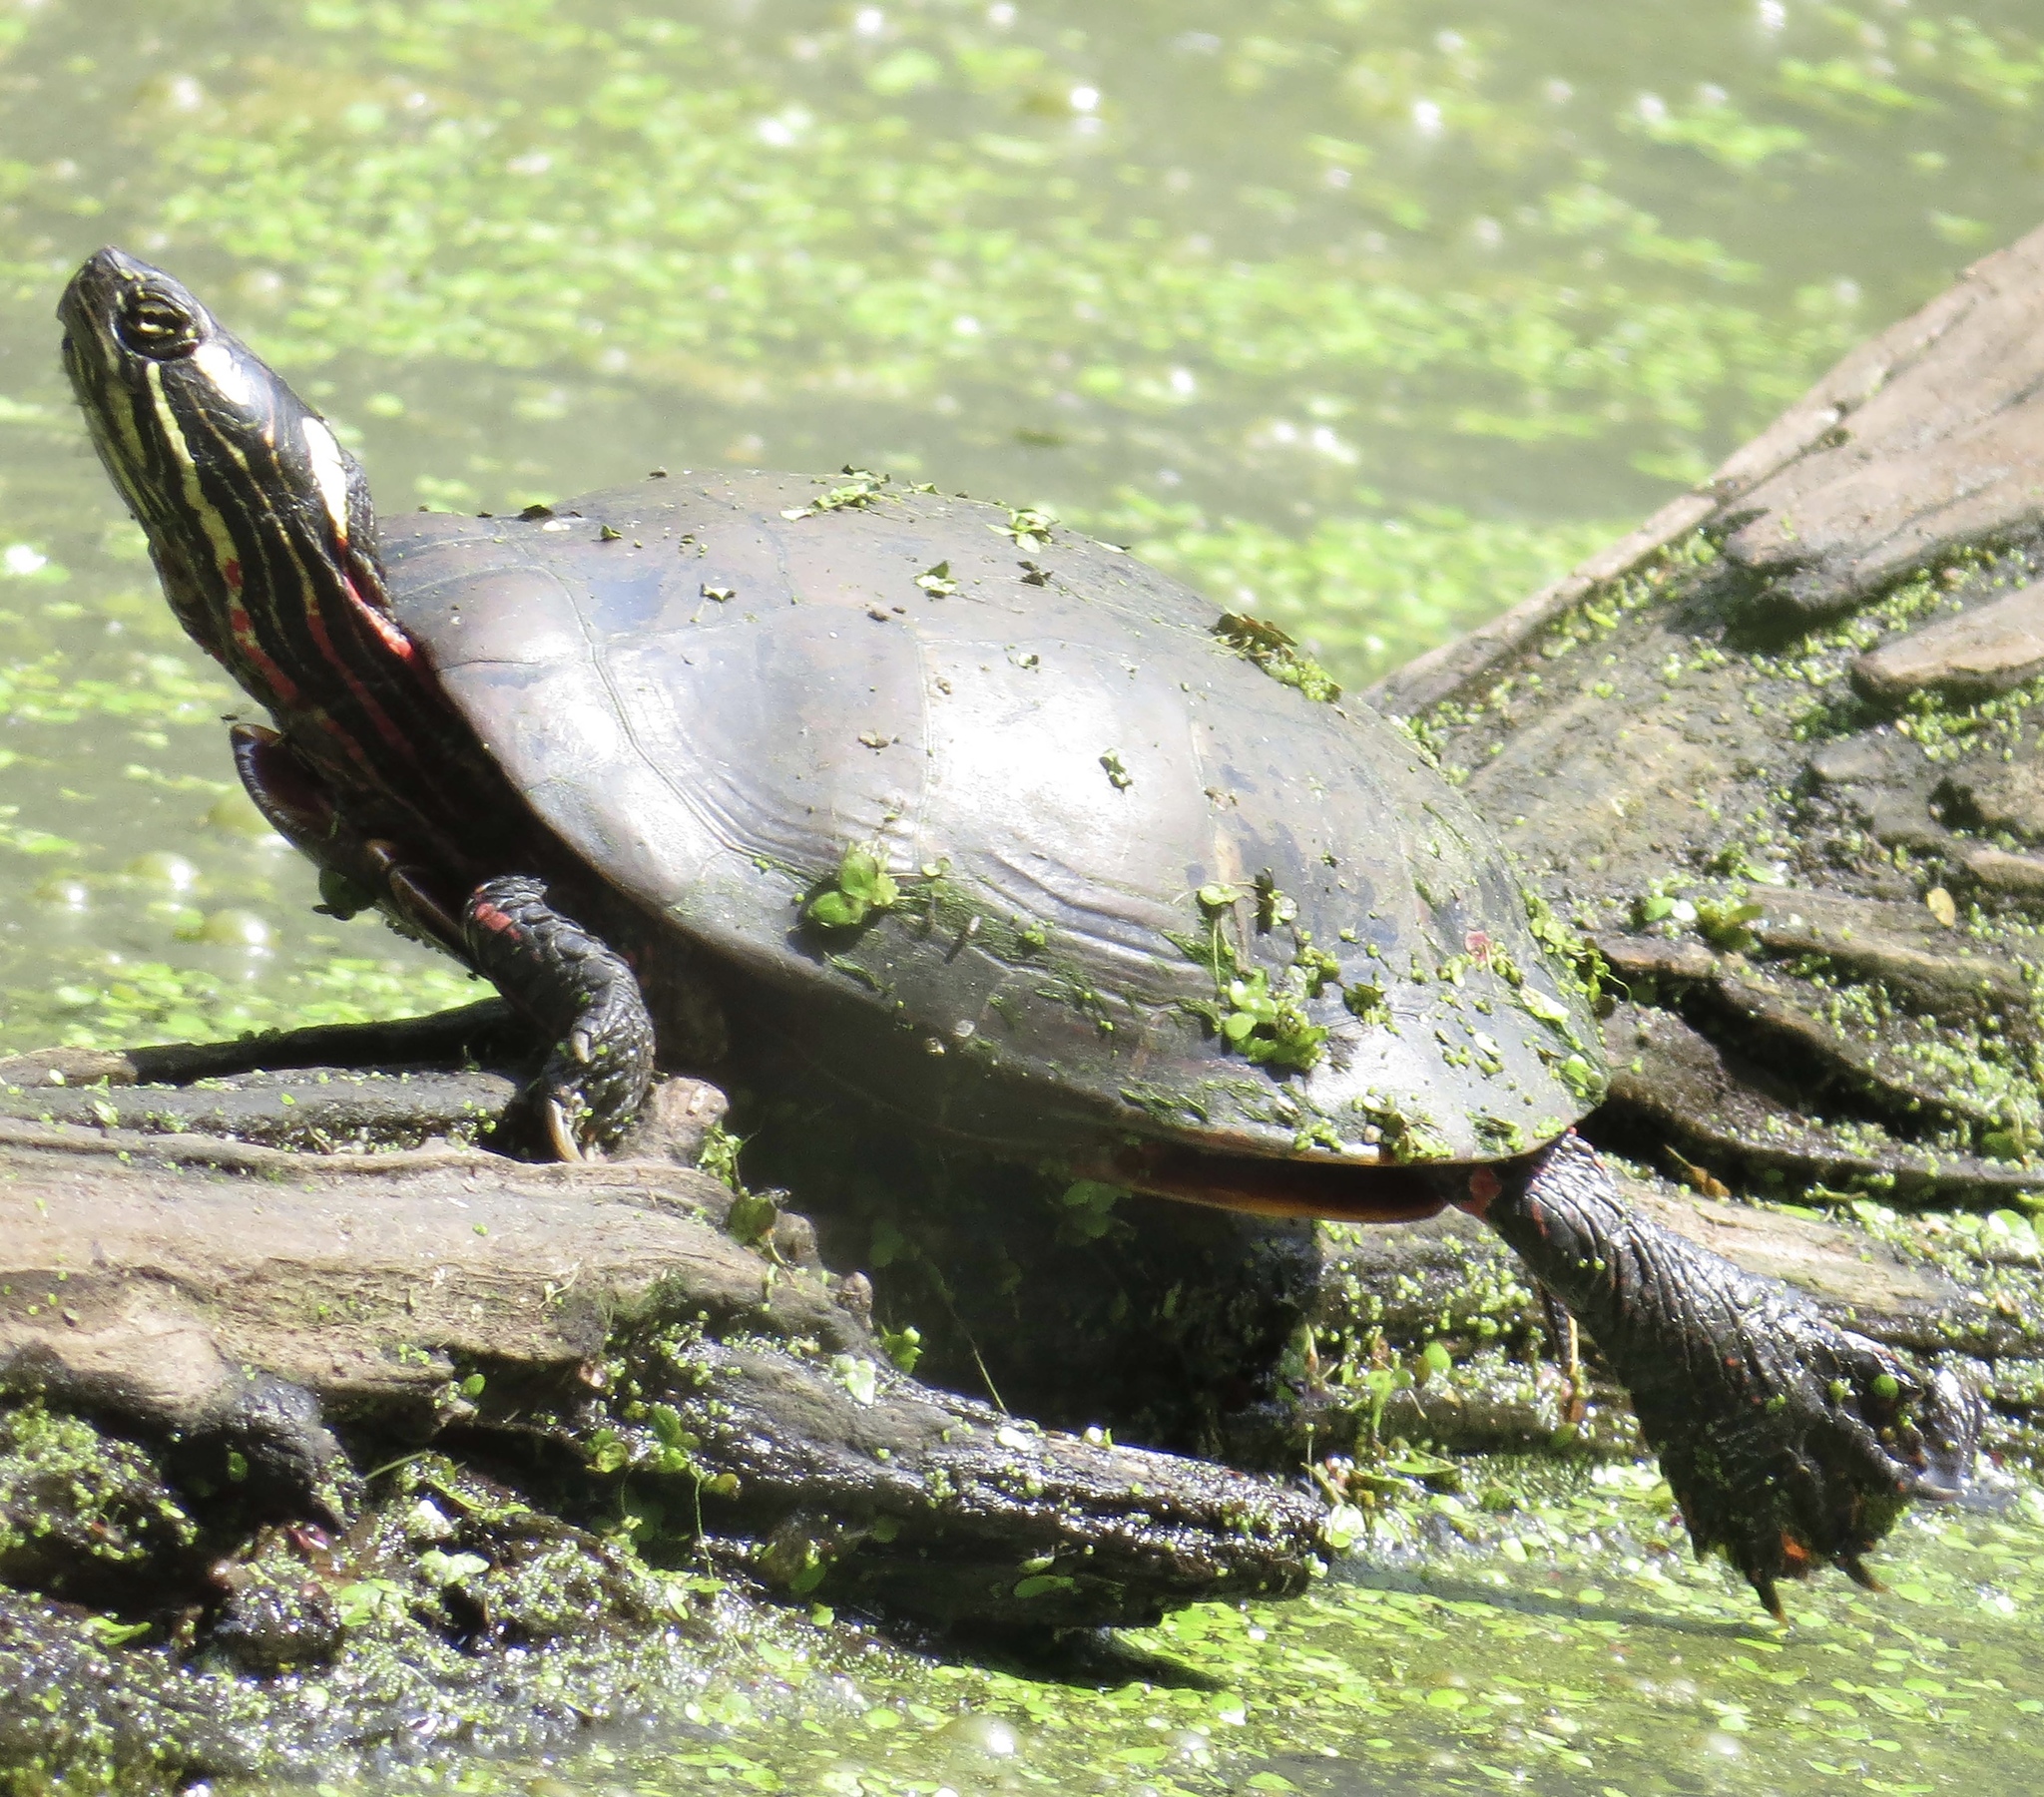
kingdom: Animalia
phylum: Chordata
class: Testudines
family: Emydidae
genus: Chrysemys
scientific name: Chrysemys picta
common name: Painted turtle
